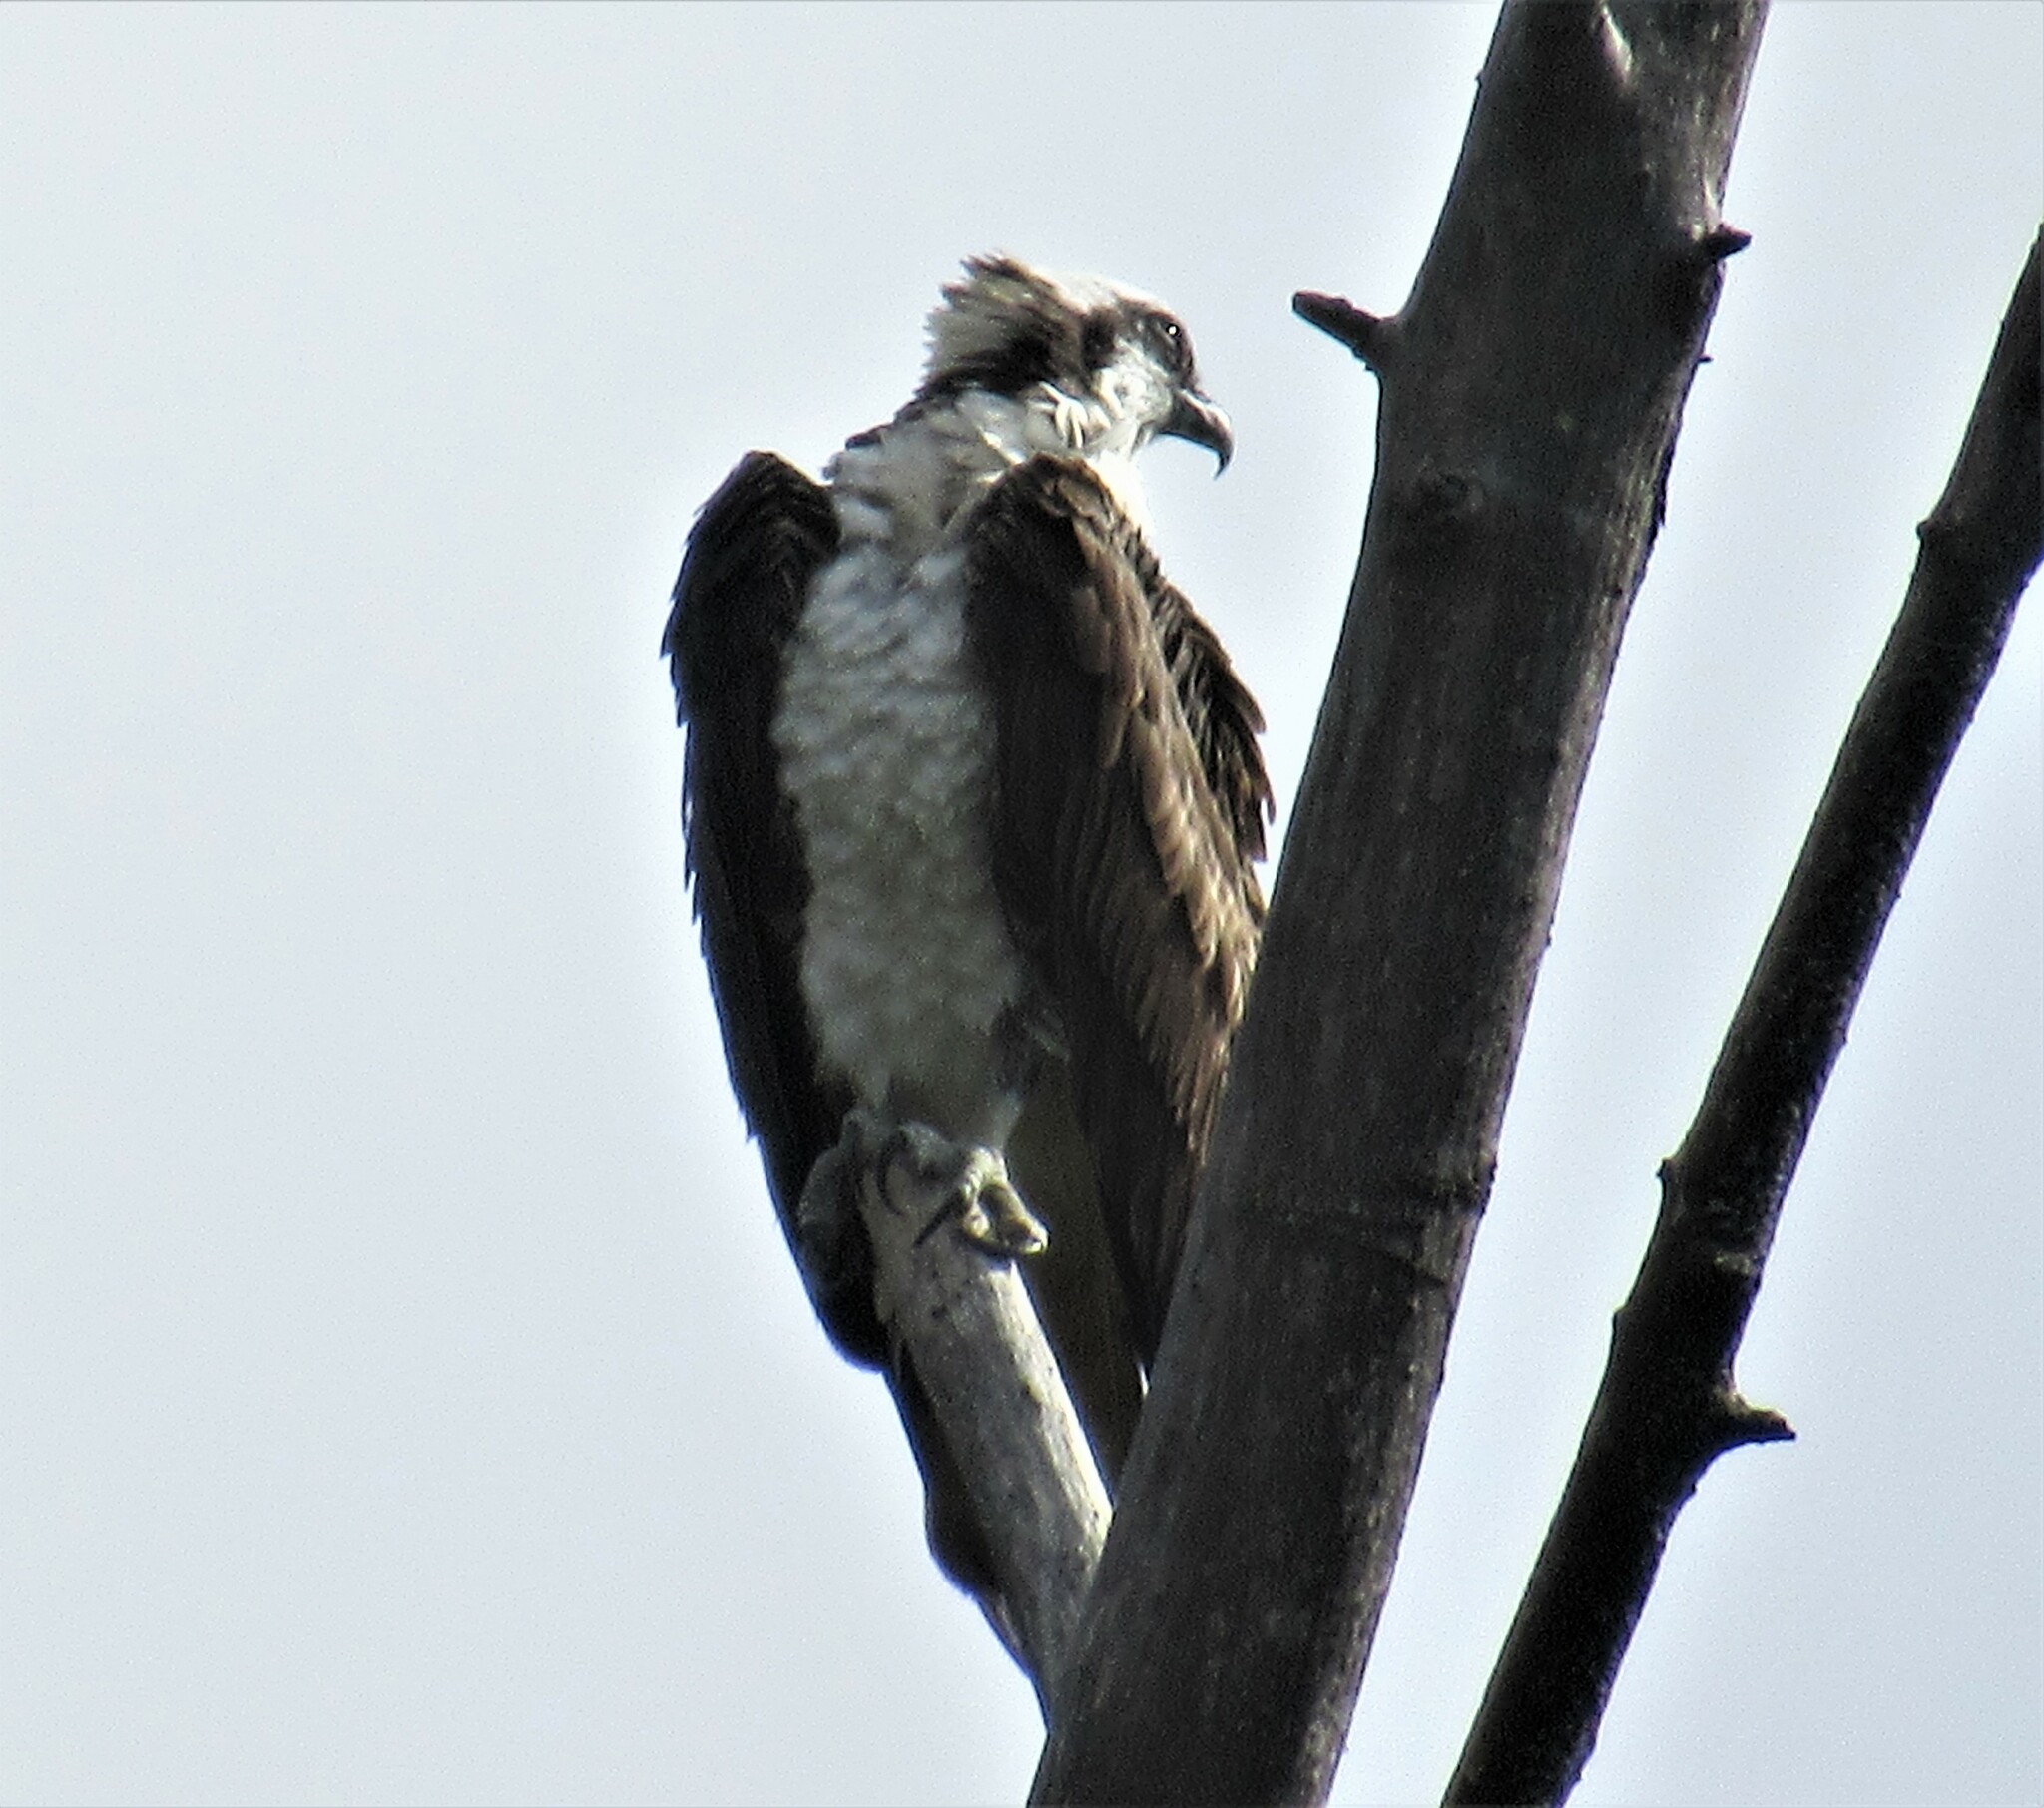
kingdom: Animalia
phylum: Chordata
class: Aves
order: Accipitriformes
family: Pandionidae
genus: Pandion
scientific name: Pandion haliaetus
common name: Osprey
